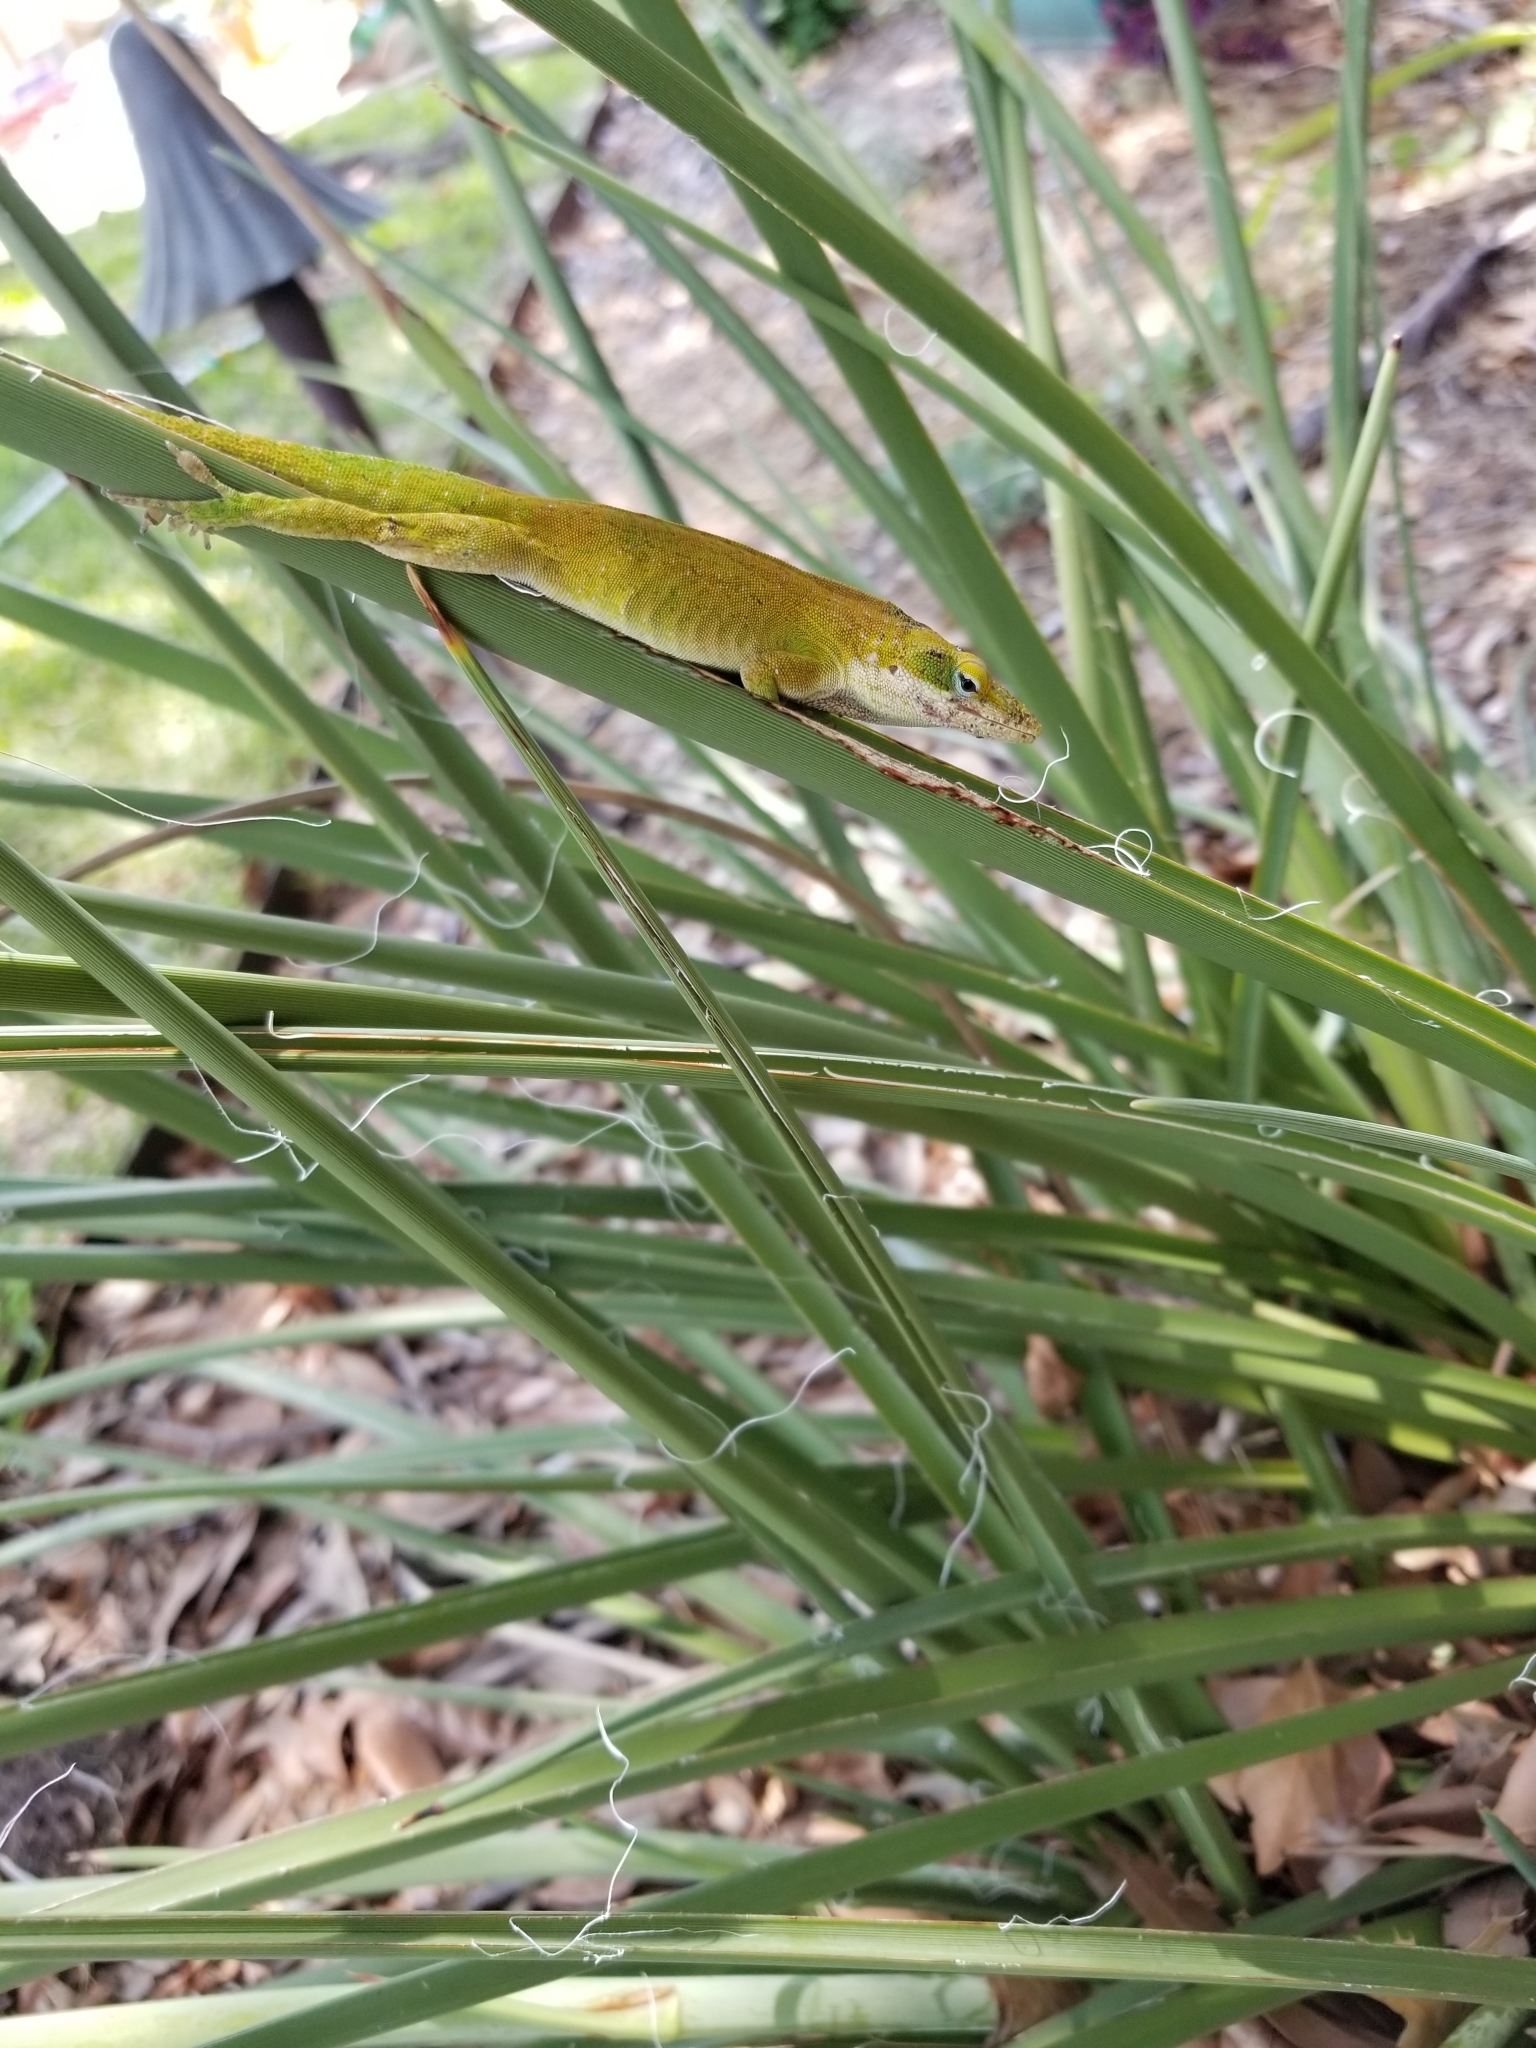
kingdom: Animalia
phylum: Chordata
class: Squamata
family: Dactyloidae
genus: Anolis
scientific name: Anolis carolinensis
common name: Green anole
